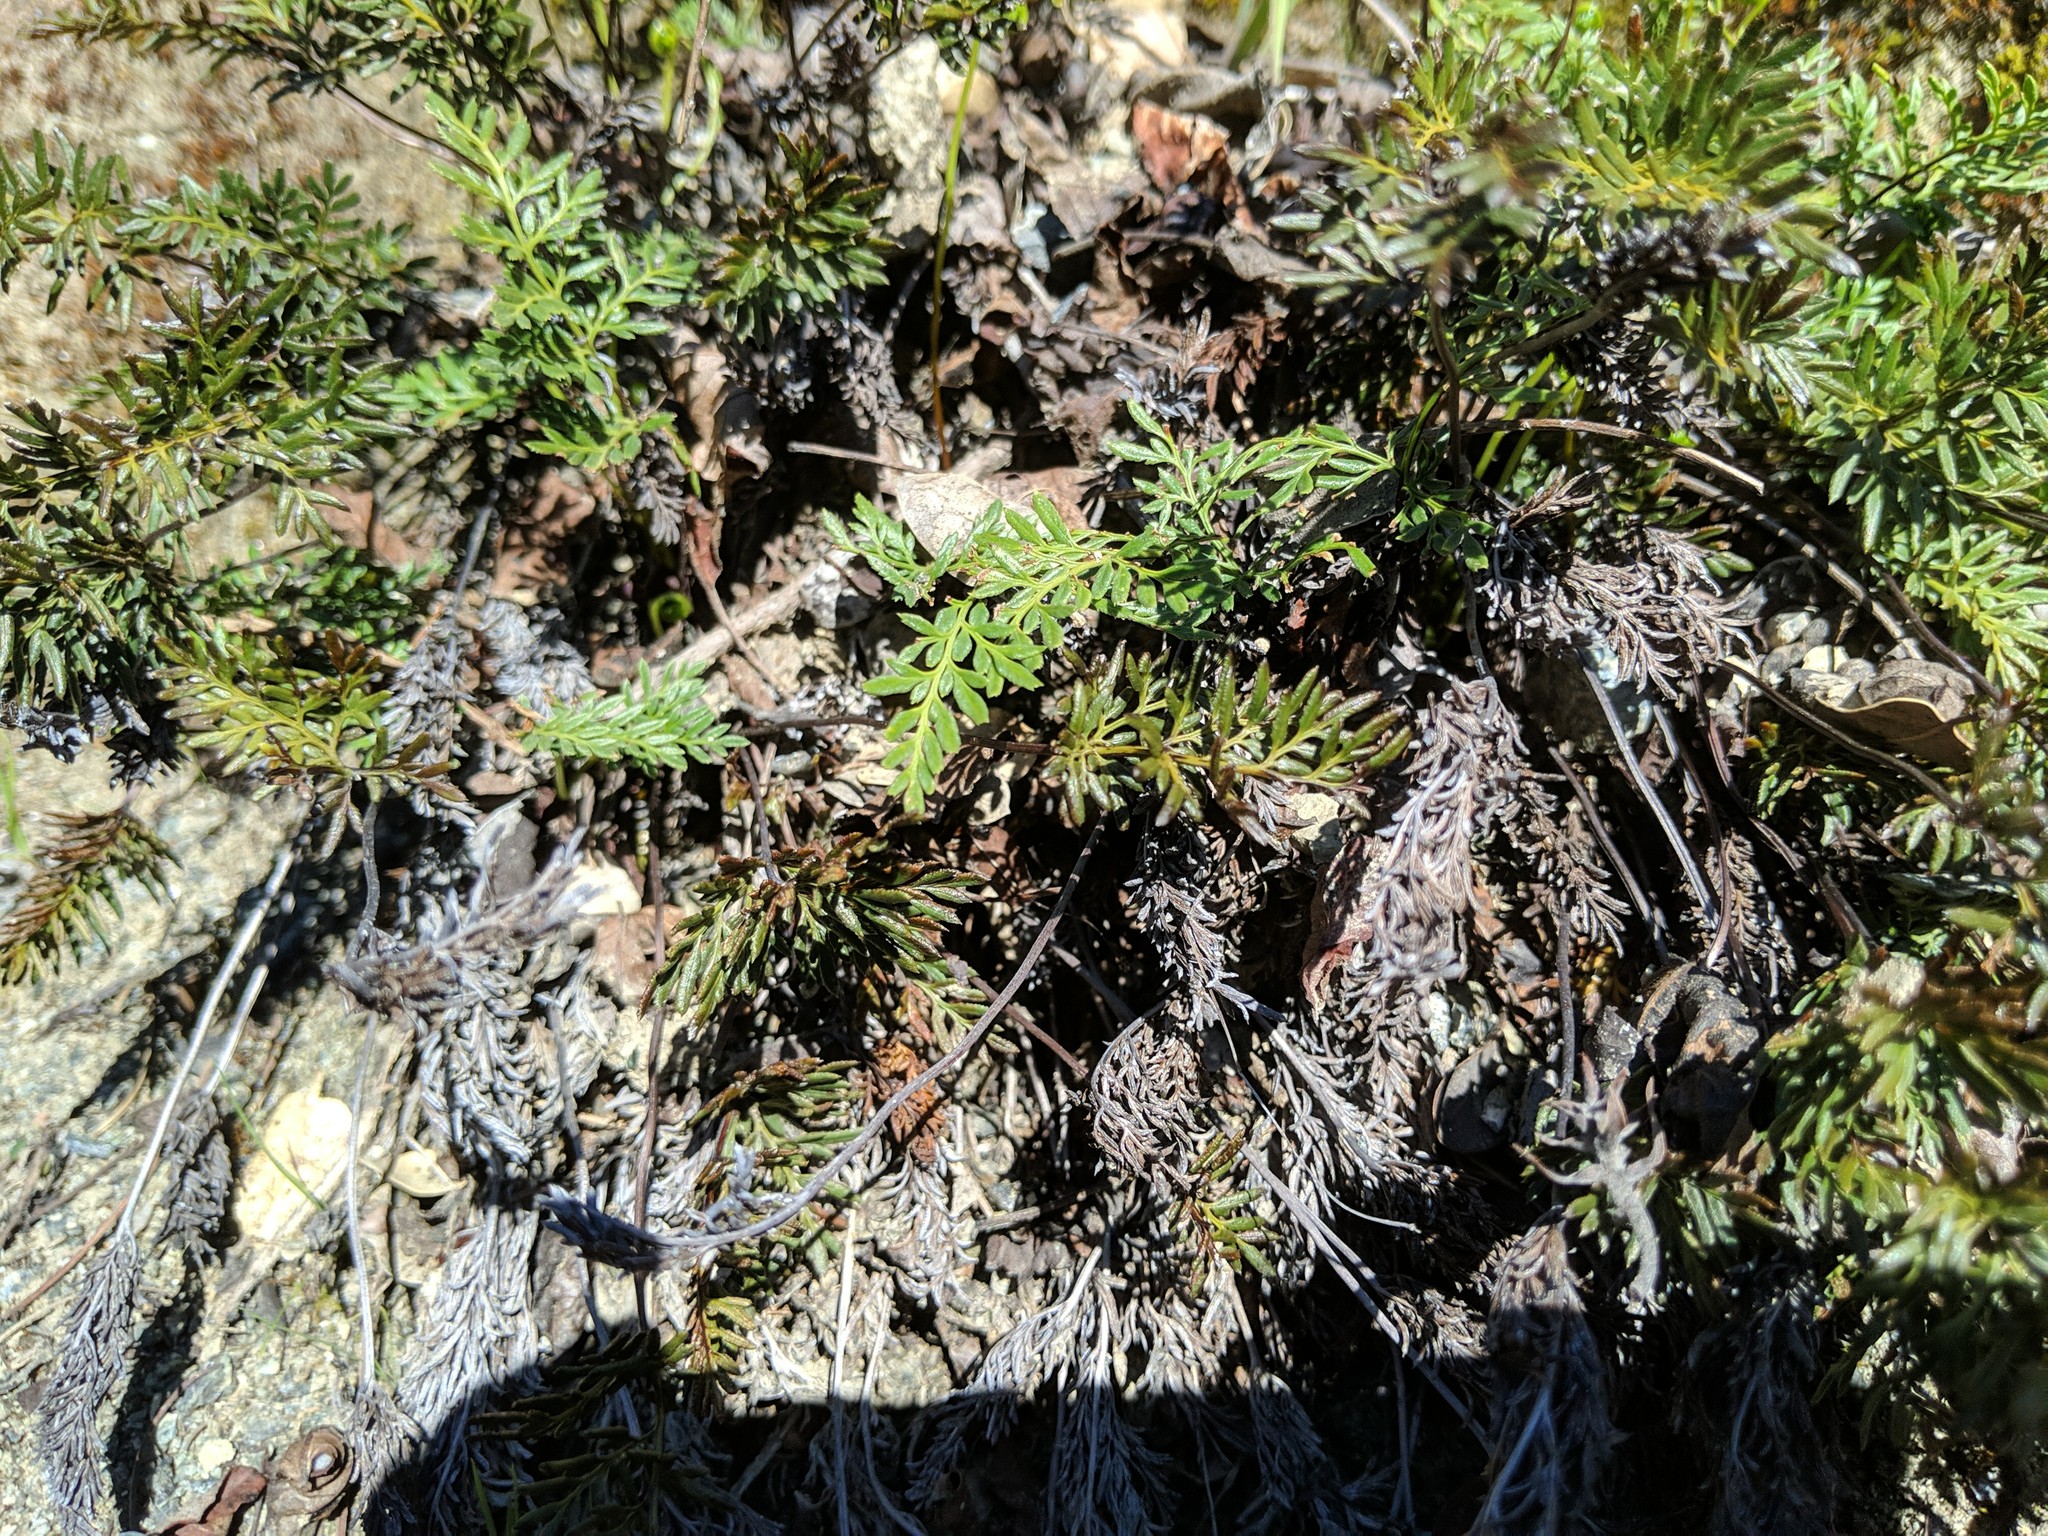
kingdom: Plantae
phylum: Tracheophyta
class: Polypodiopsida
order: Polypodiales
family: Pteridaceae
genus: Aspidotis
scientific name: Aspidotis densa
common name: Indian's dream
